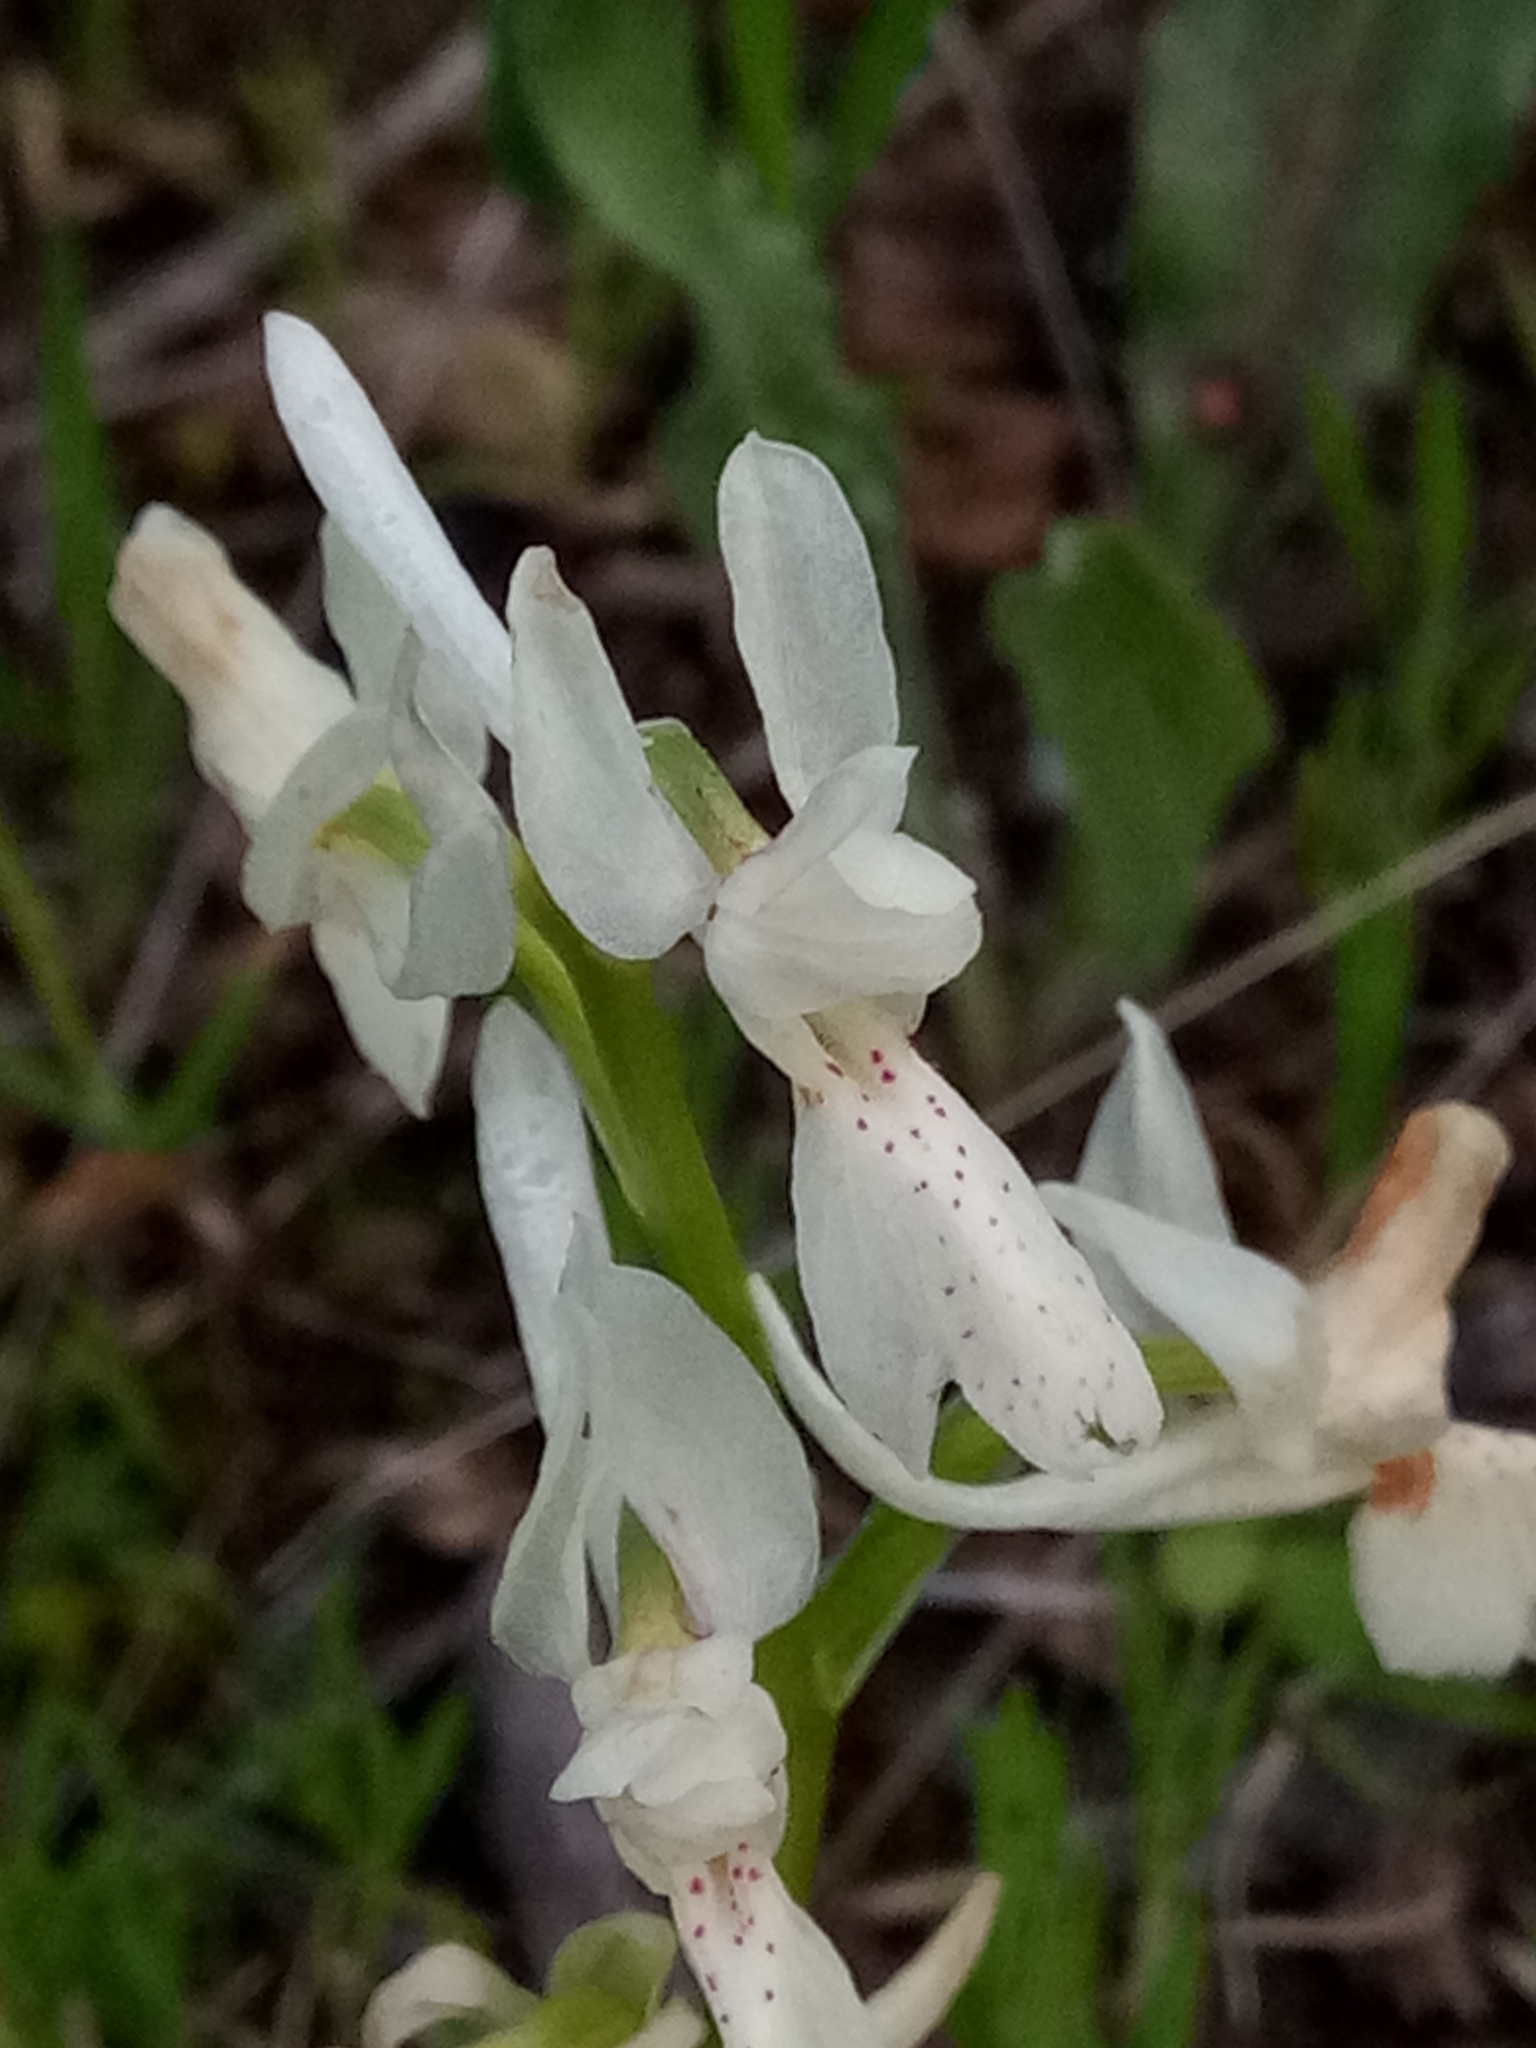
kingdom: Plantae
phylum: Tracheophyta
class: Liliopsida
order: Asparagales
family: Orchidaceae
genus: Orchis
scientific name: Orchis laeta
